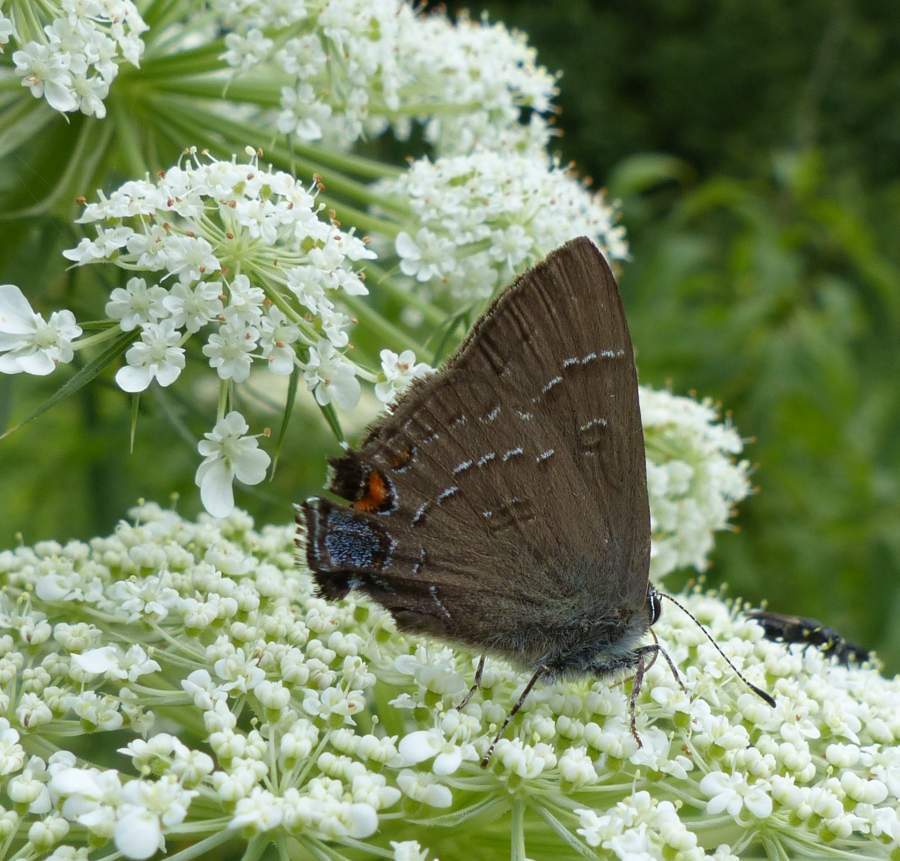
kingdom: Animalia
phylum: Arthropoda
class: Insecta
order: Lepidoptera
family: Lycaenidae
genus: Satyrium
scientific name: Satyrium calanus
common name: Banded hairstreak
